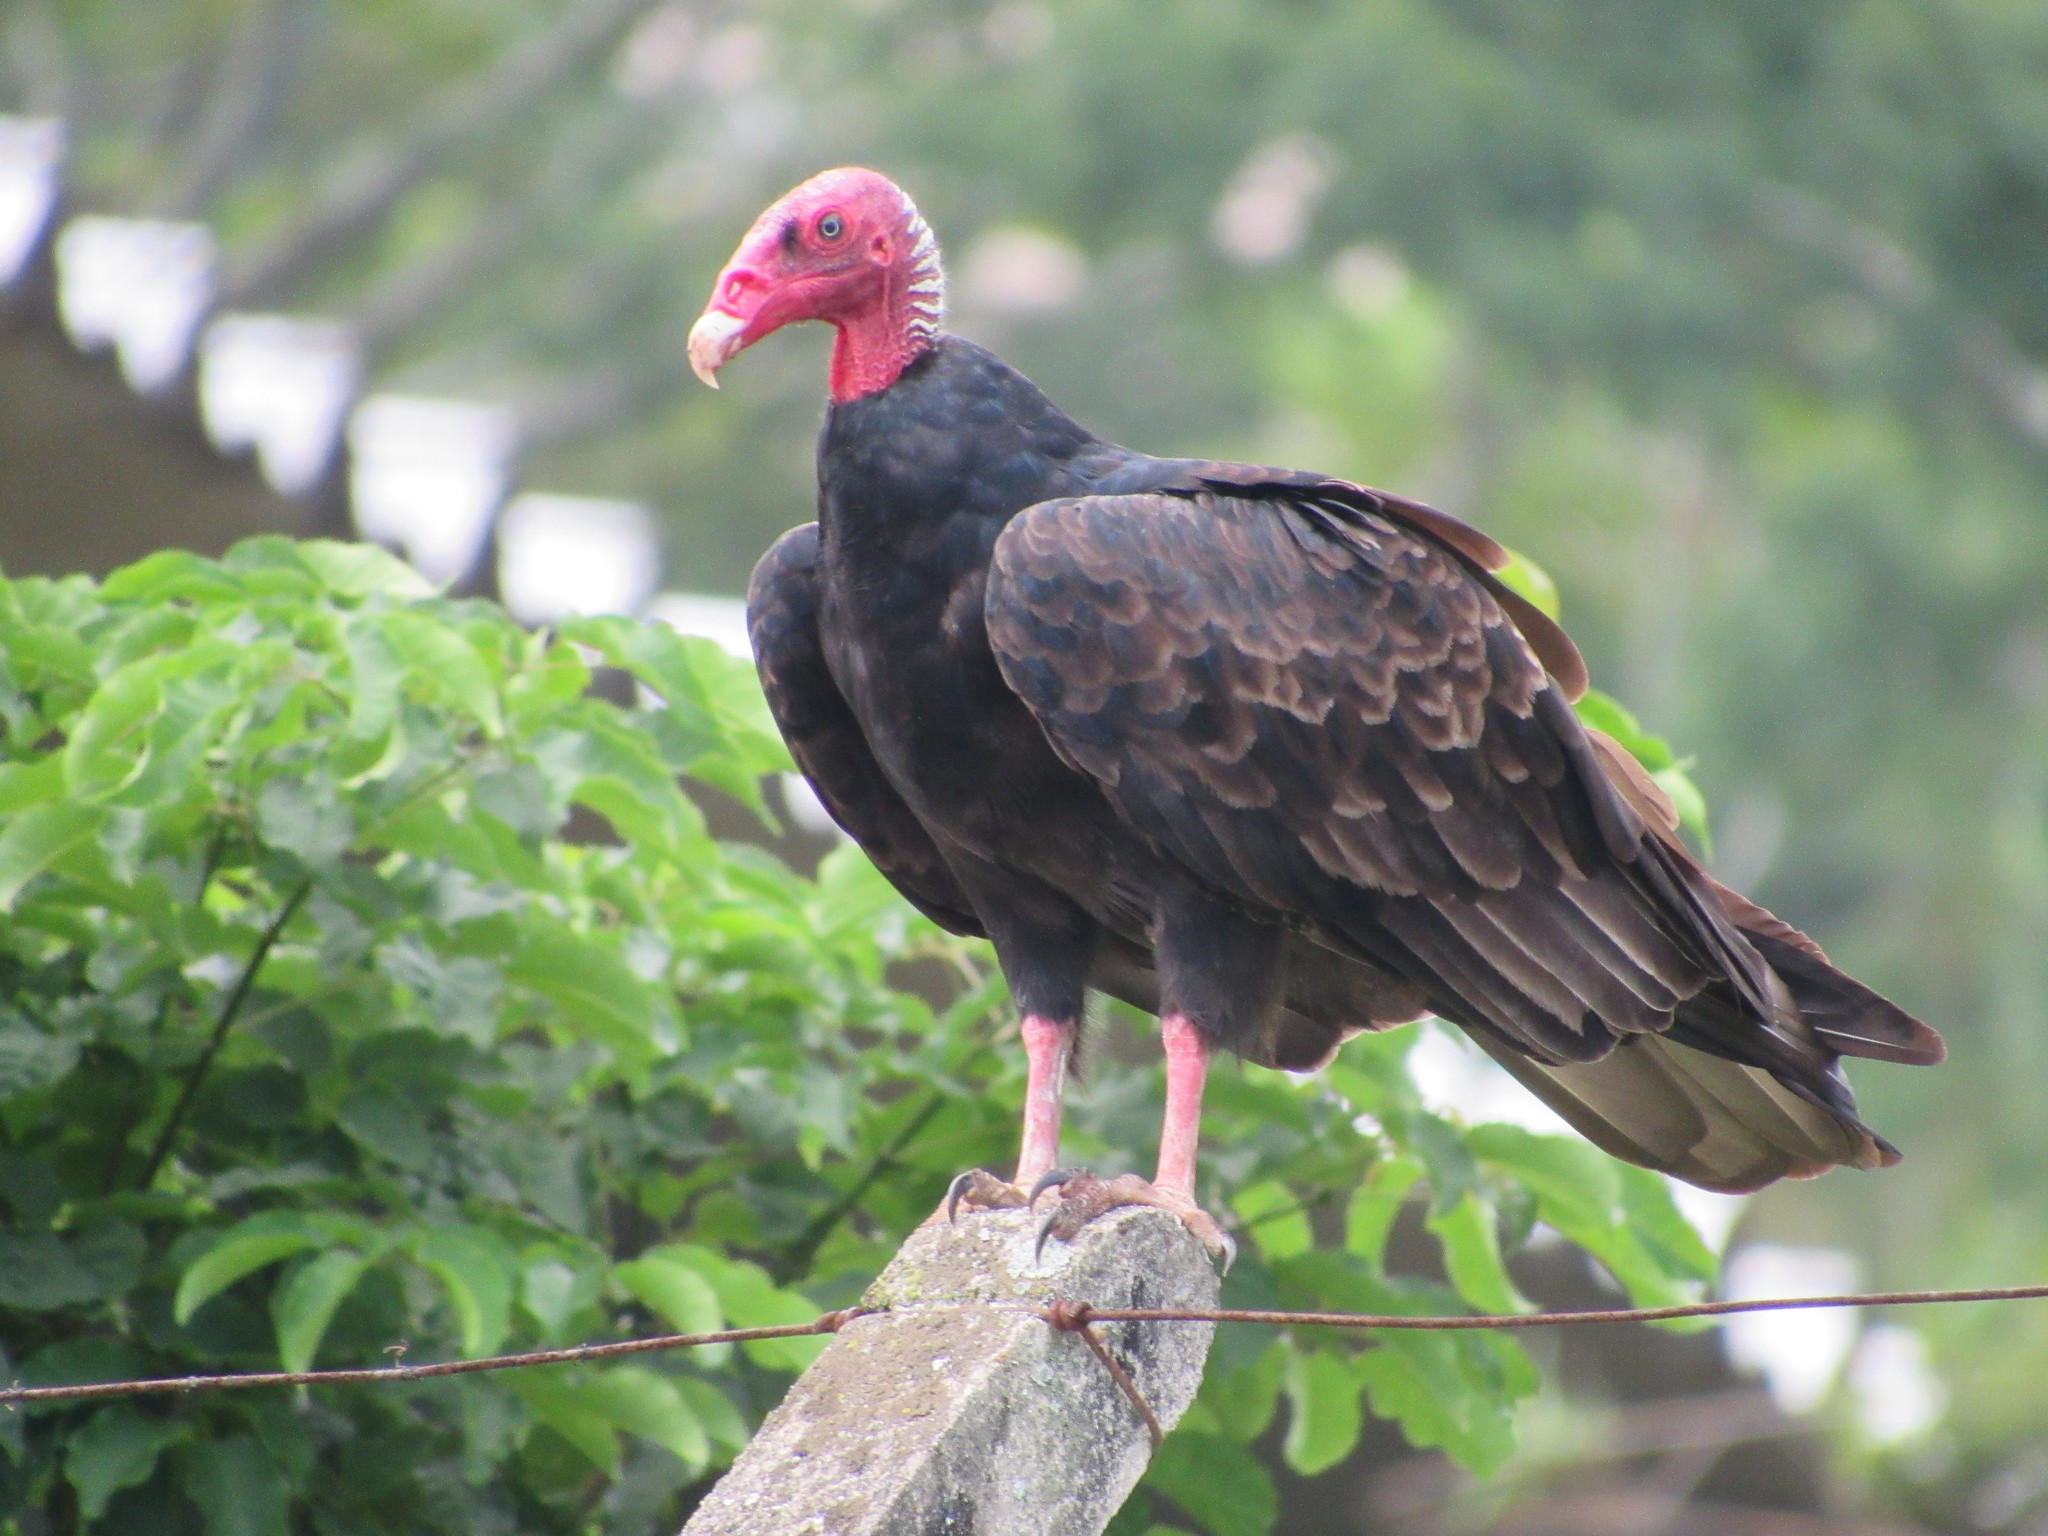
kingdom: Animalia
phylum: Chordata
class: Aves
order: Accipitriformes
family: Cathartidae
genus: Cathartes
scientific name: Cathartes aura
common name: Turkey vulture
